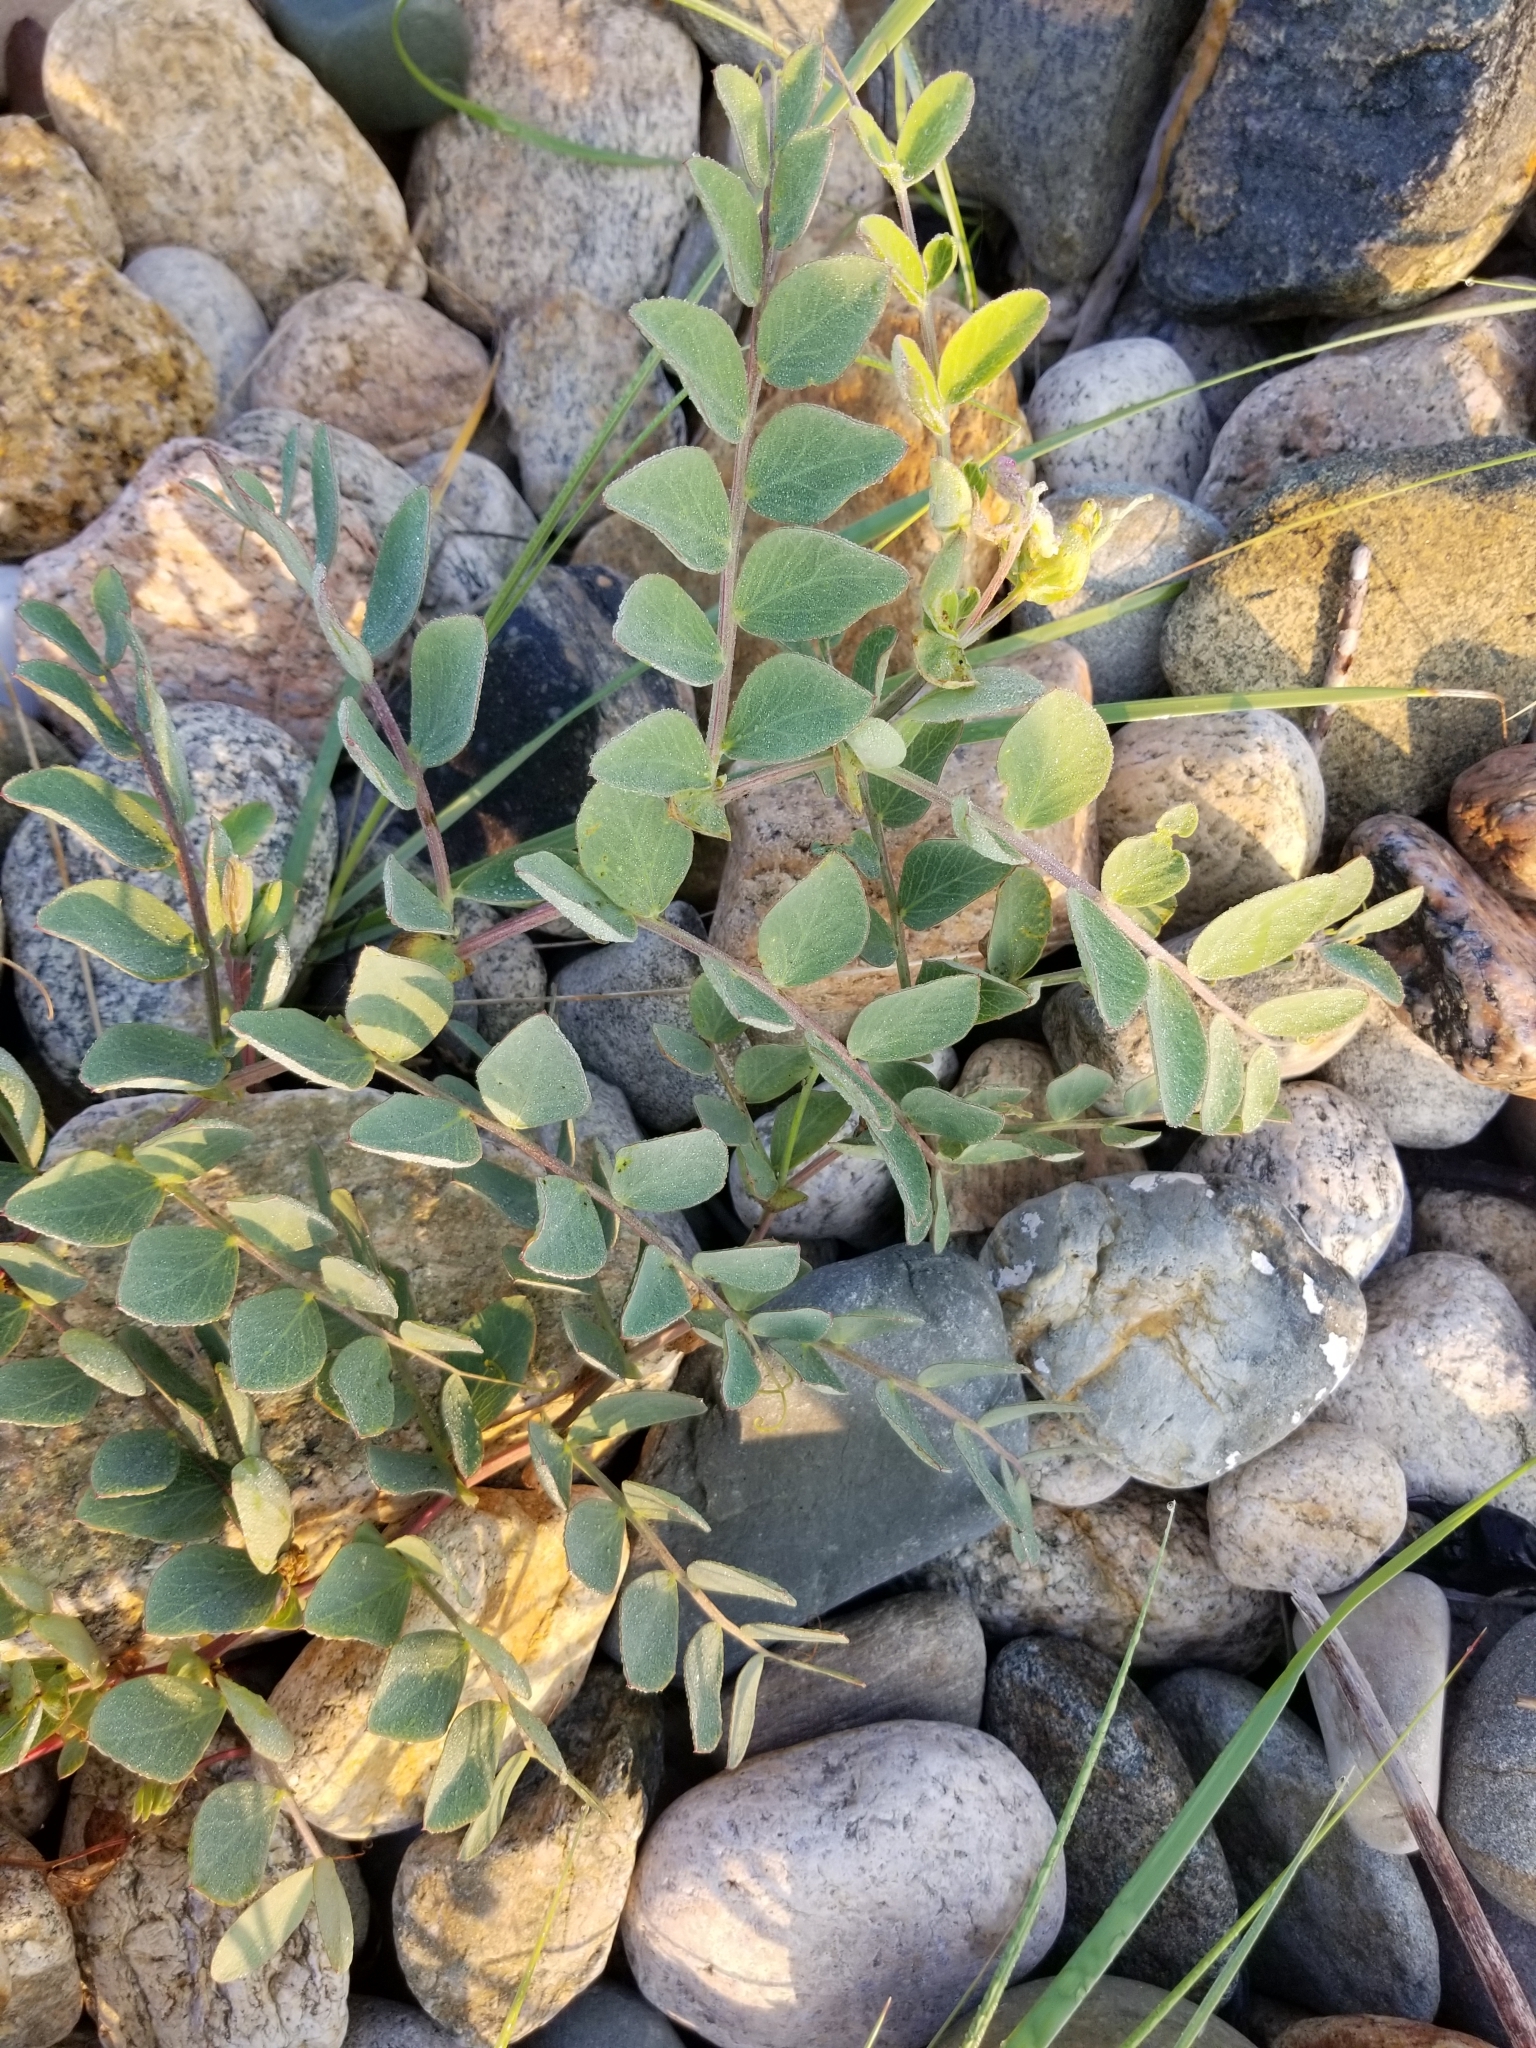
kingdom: Plantae
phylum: Tracheophyta
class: Magnoliopsida
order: Fabales
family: Fabaceae
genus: Lathyrus
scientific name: Lathyrus japonicus
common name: Sea pea
